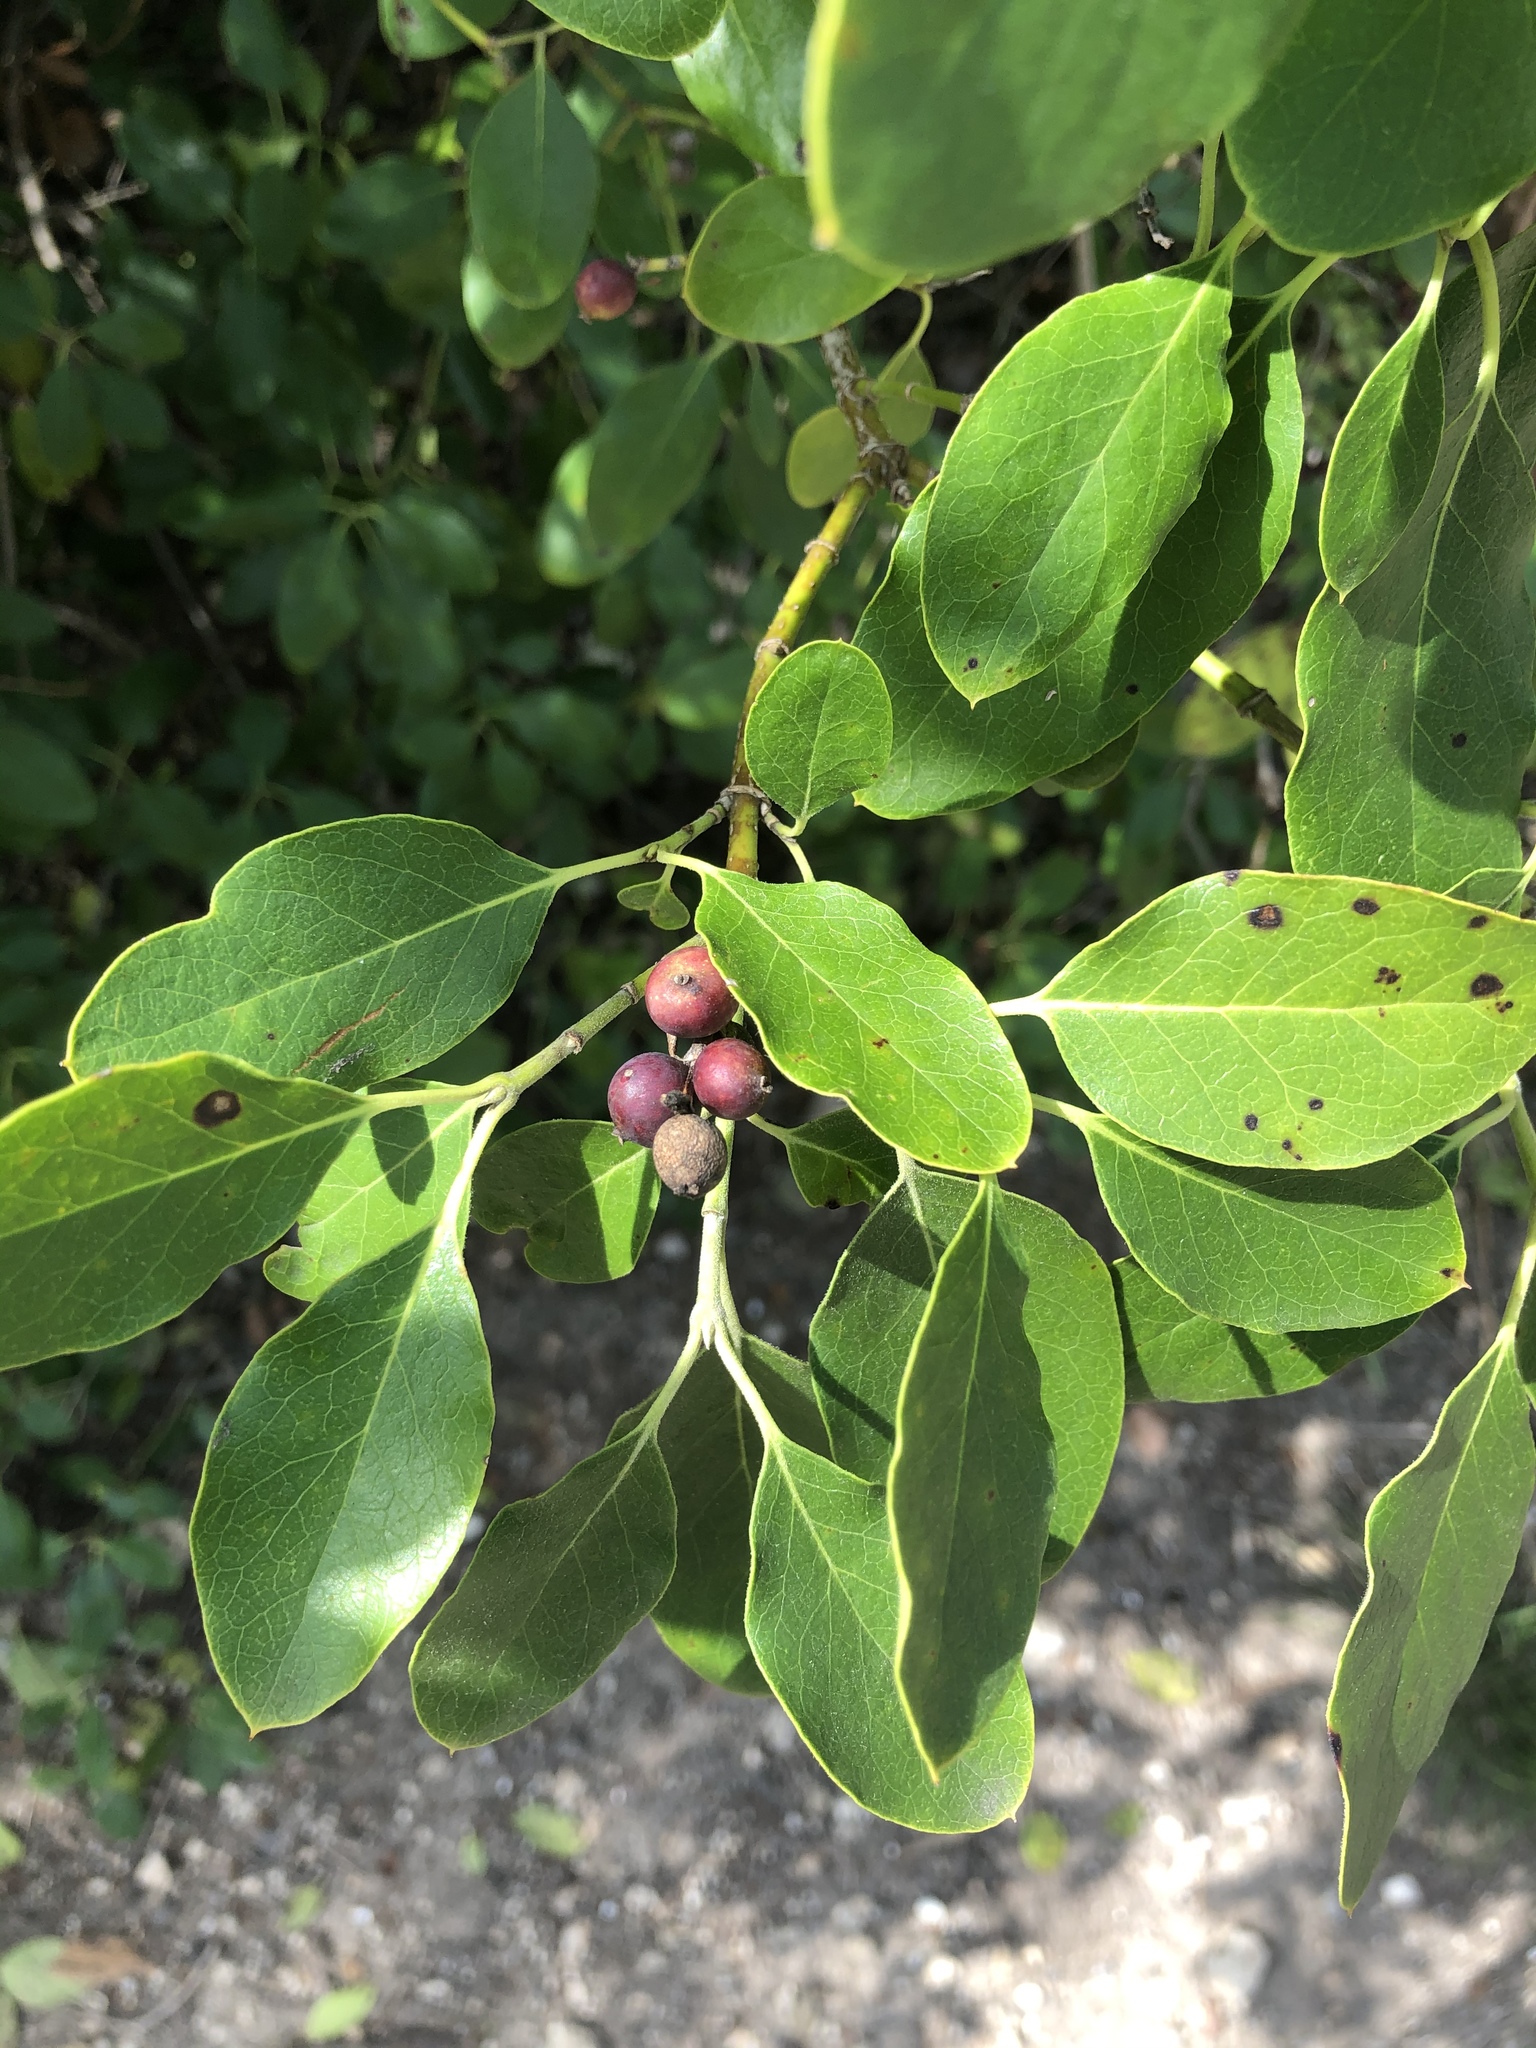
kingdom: Plantae
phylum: Tracheophyta
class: Magnoliopsida
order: Garryales
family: Garryaceae
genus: Garrya
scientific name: Garrya lindheimeri
